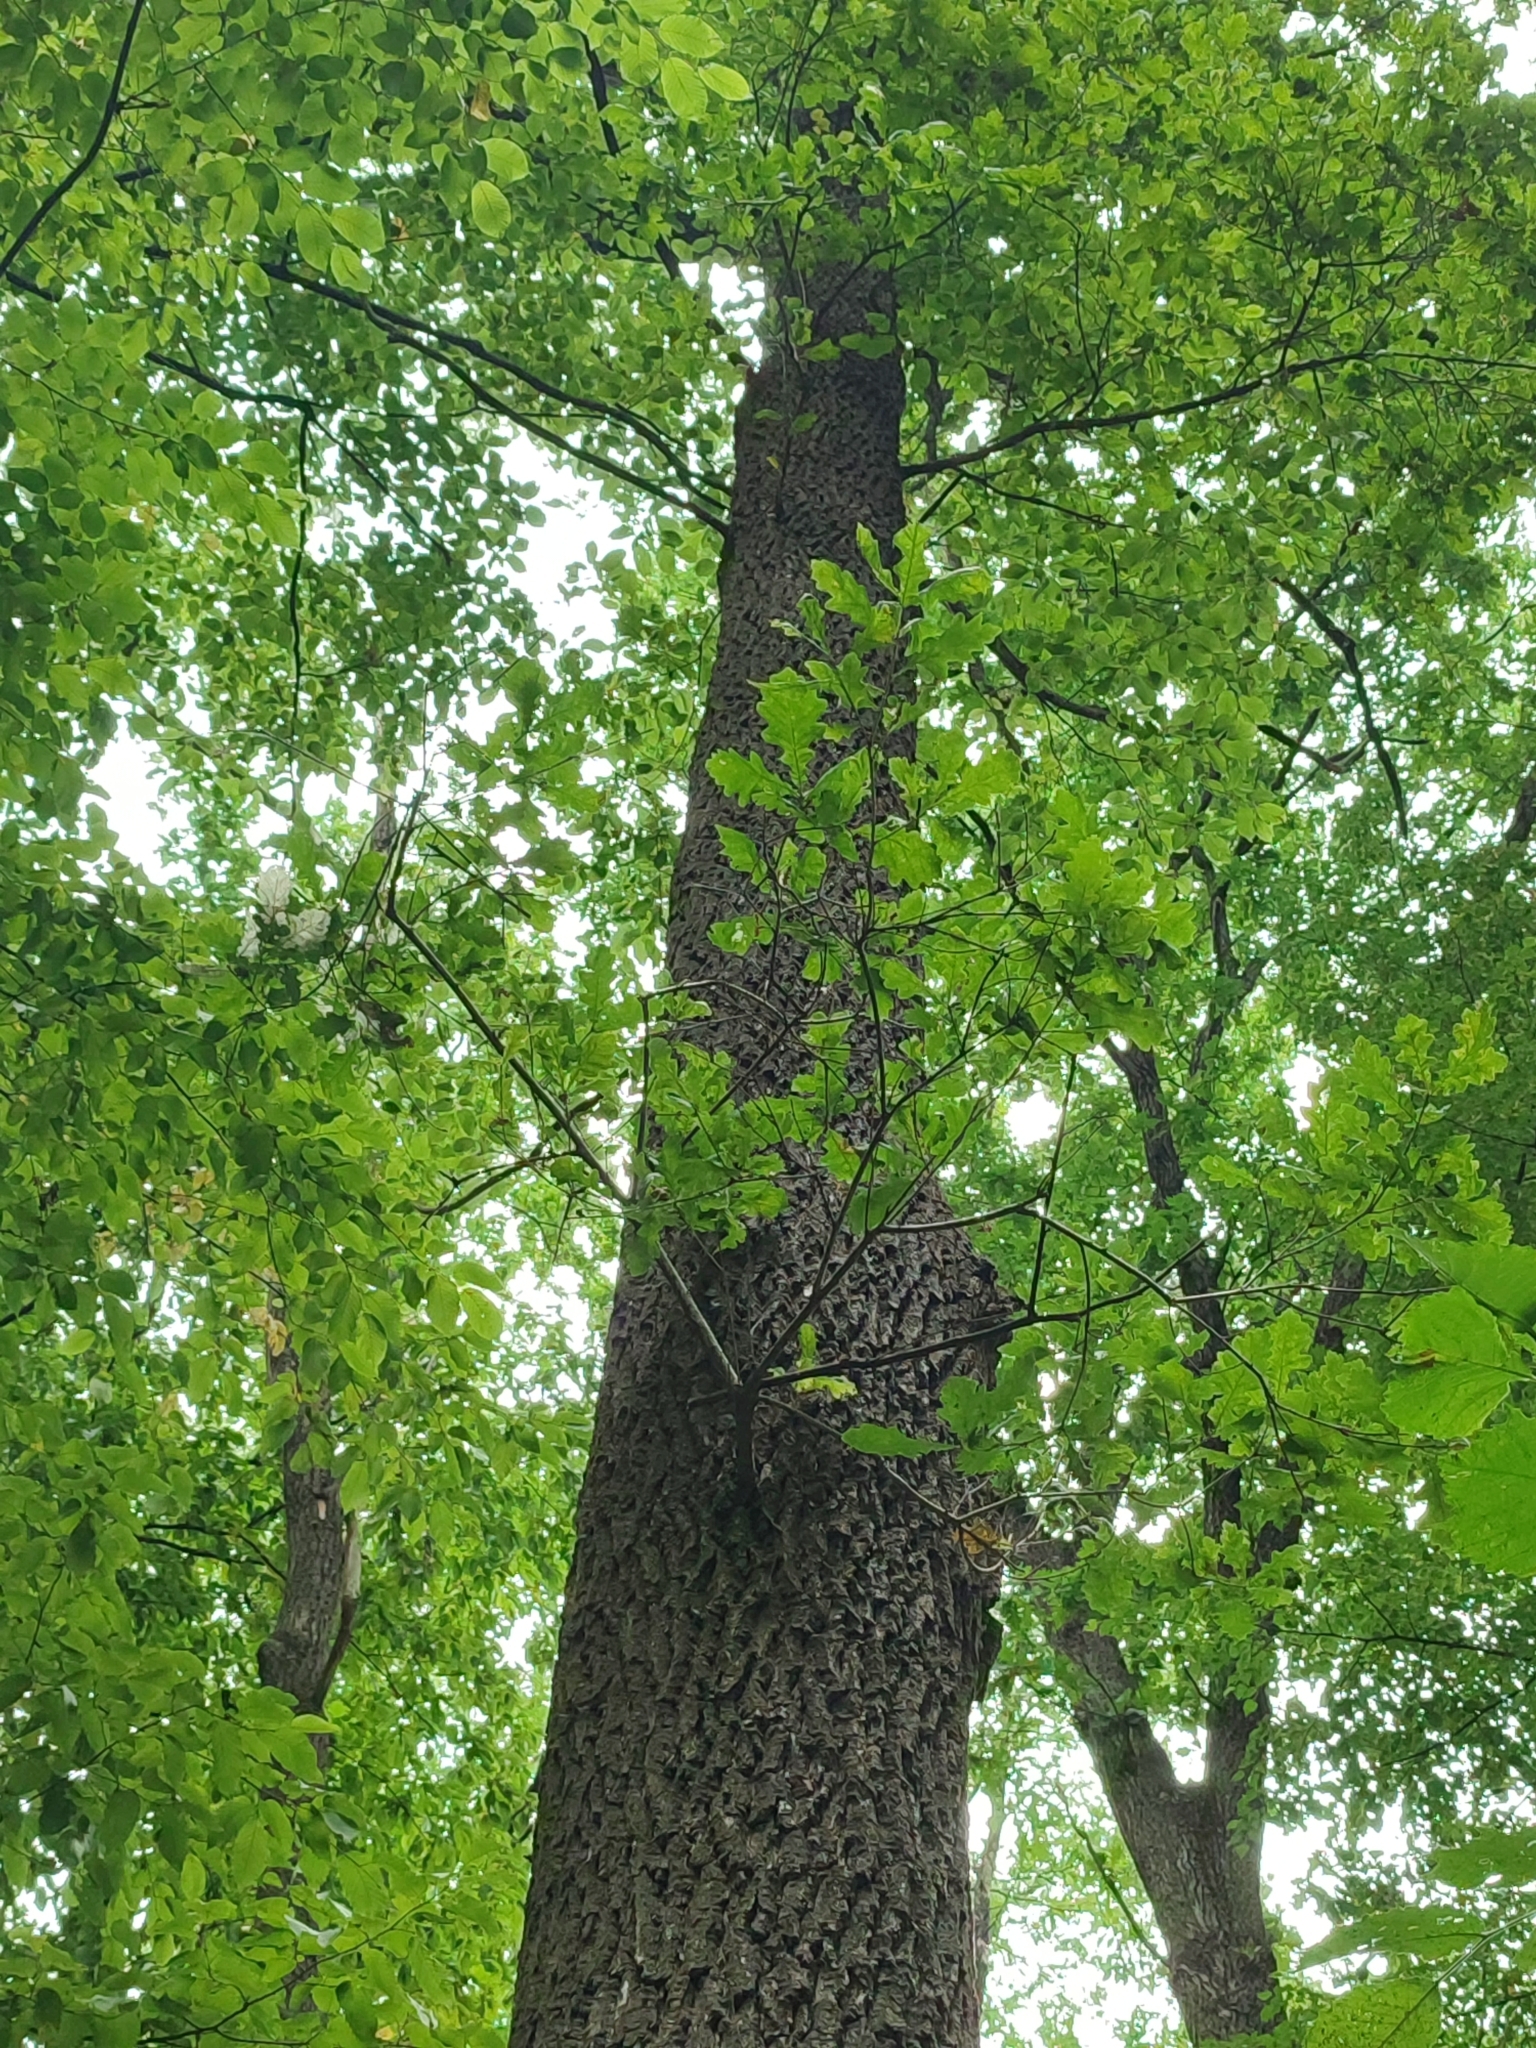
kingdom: Plantae
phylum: Tracheophyta
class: Magnoliopsida
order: Fagales
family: Fagaceae
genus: Quercus
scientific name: Quercus robur
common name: Pedunculate oak
